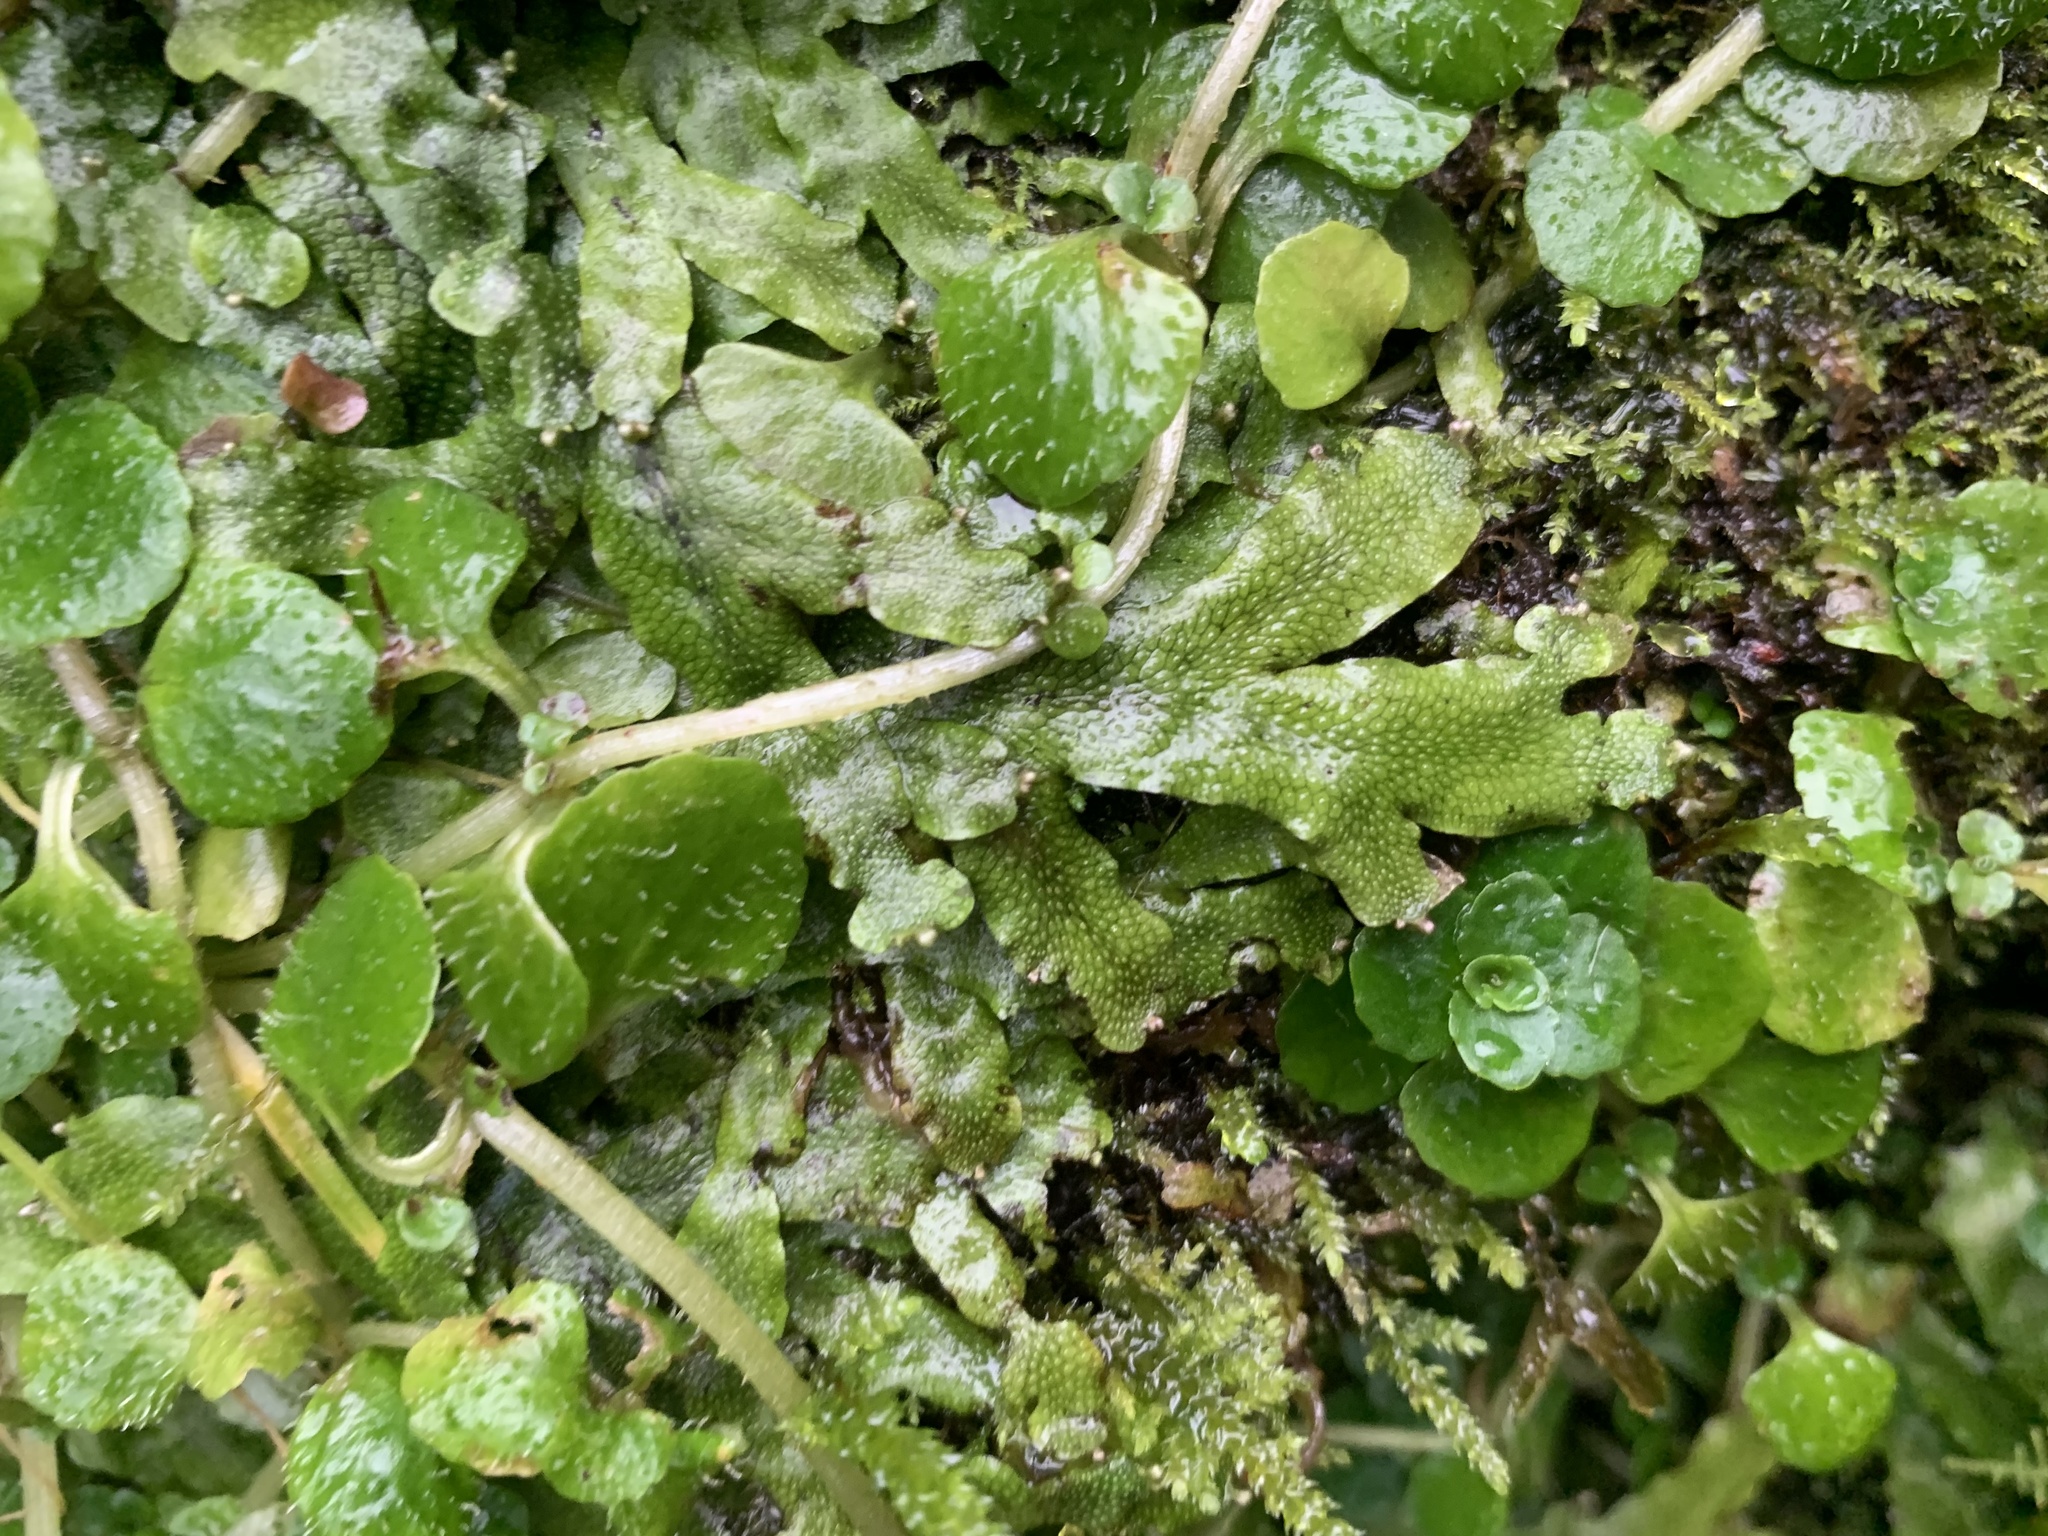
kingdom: Plantae
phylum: Marchantiophyta
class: Marchantiopsida
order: Marchantiales
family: Conocephalaceae
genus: Conocephalum
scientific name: Conocephalum conicum
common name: Great scented liverwort
